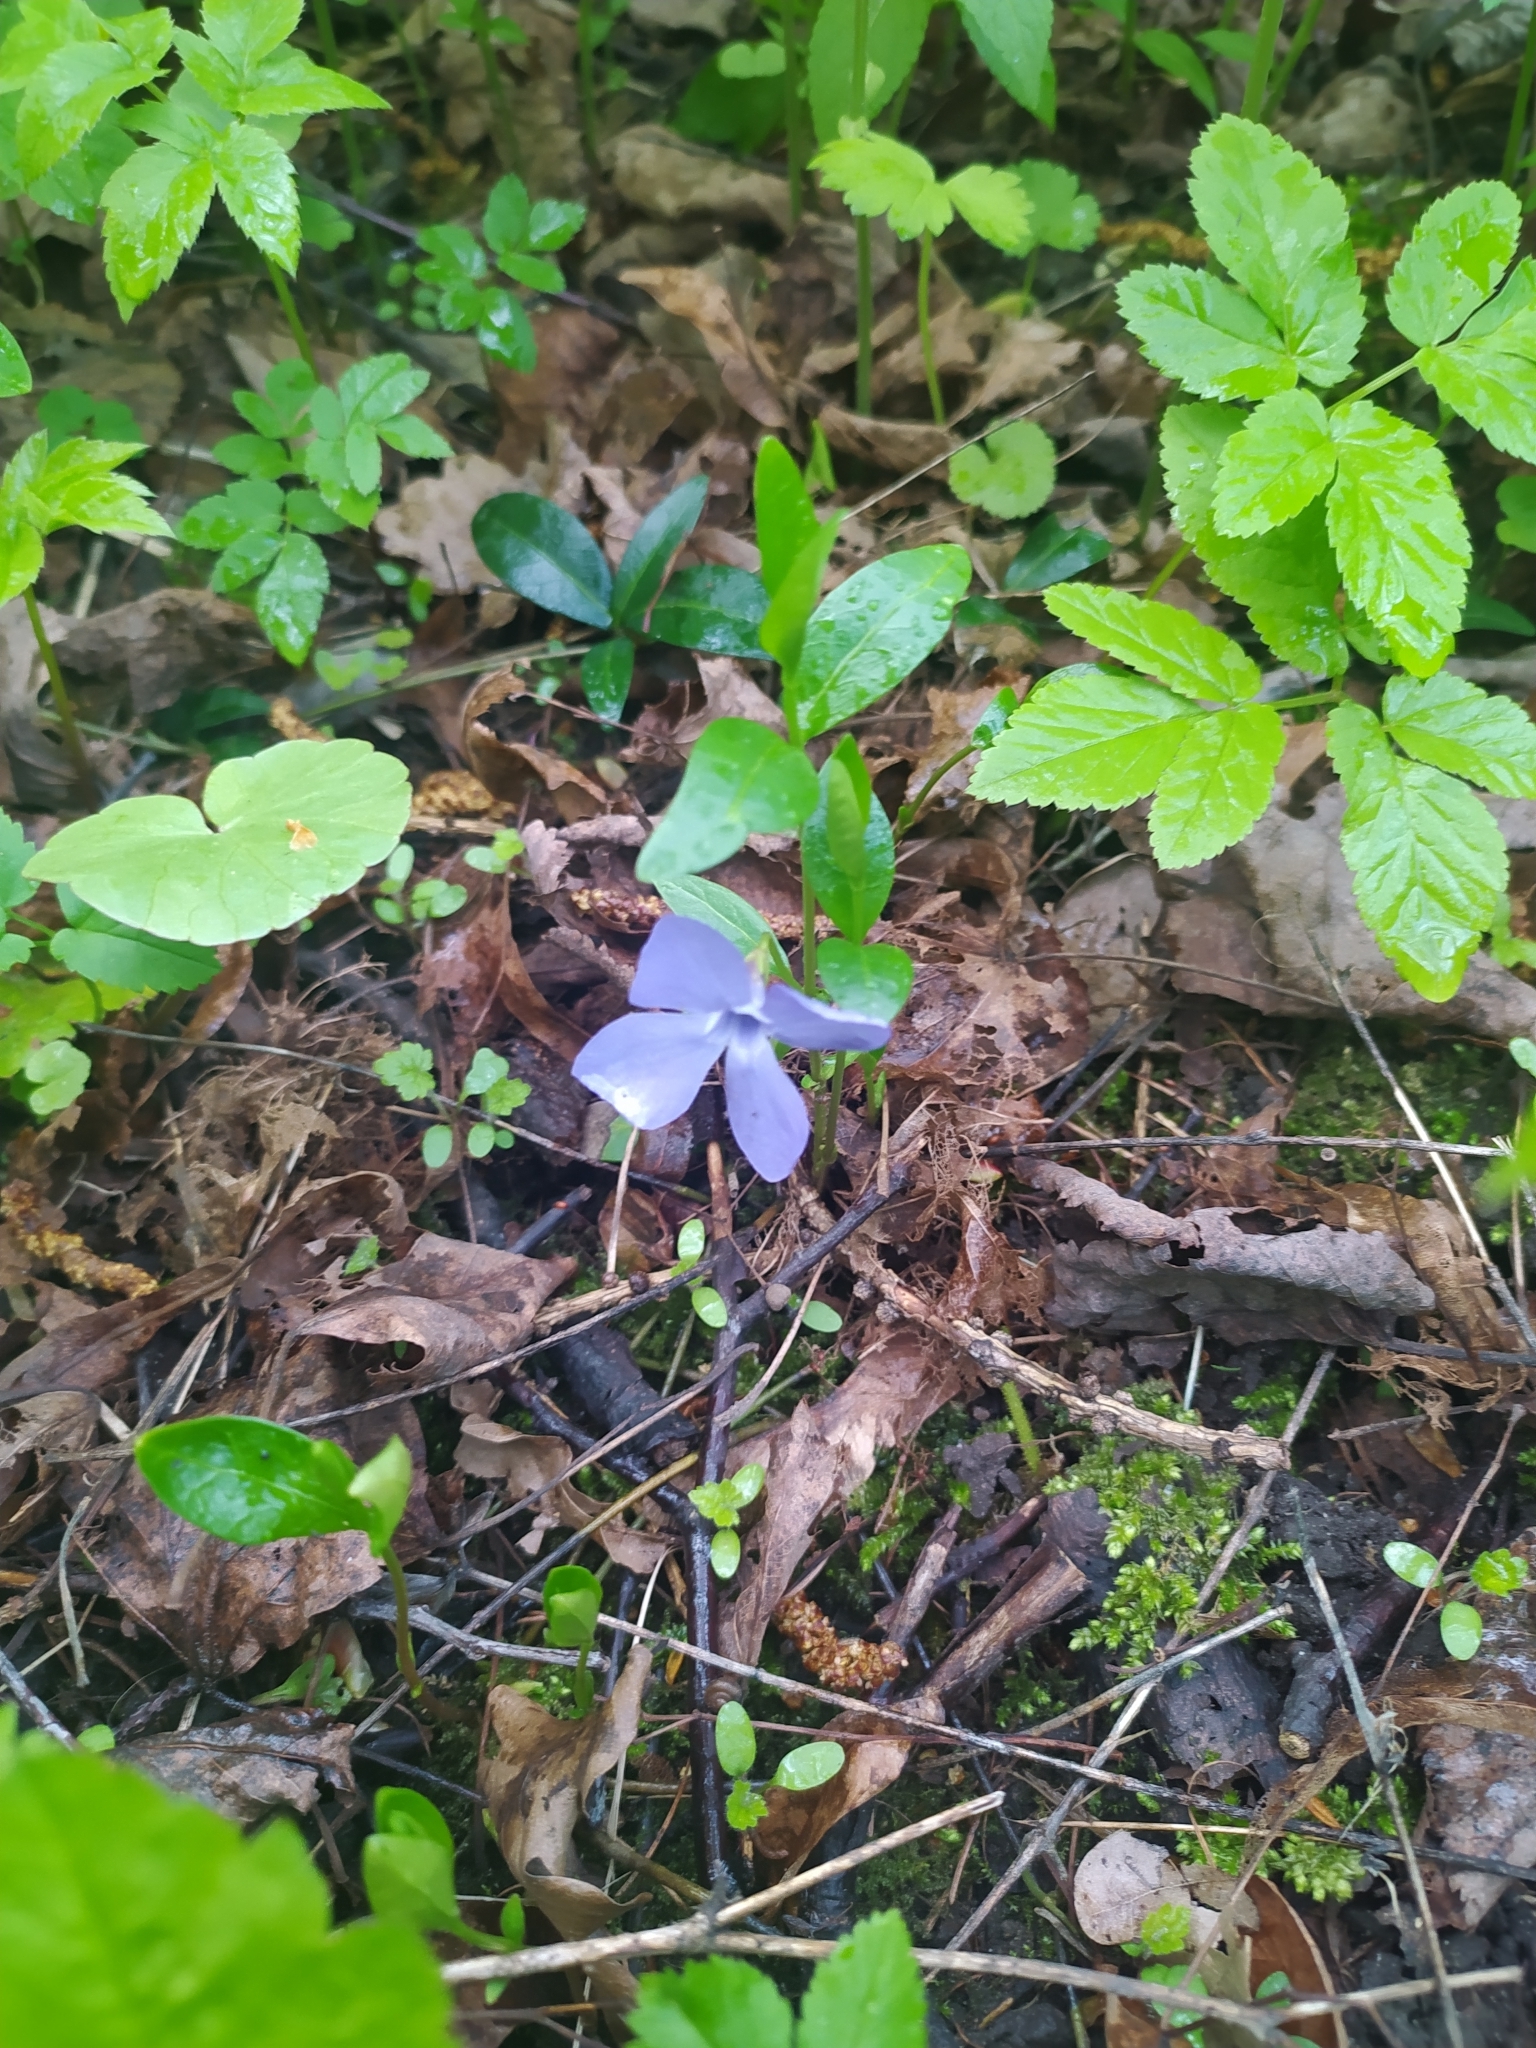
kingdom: Plantae
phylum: Tracheophyta
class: Magnoliopsida
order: Gentianales
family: Apocynaceae
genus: Vinca
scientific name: Vinca minor
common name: Lesser periwinkle
